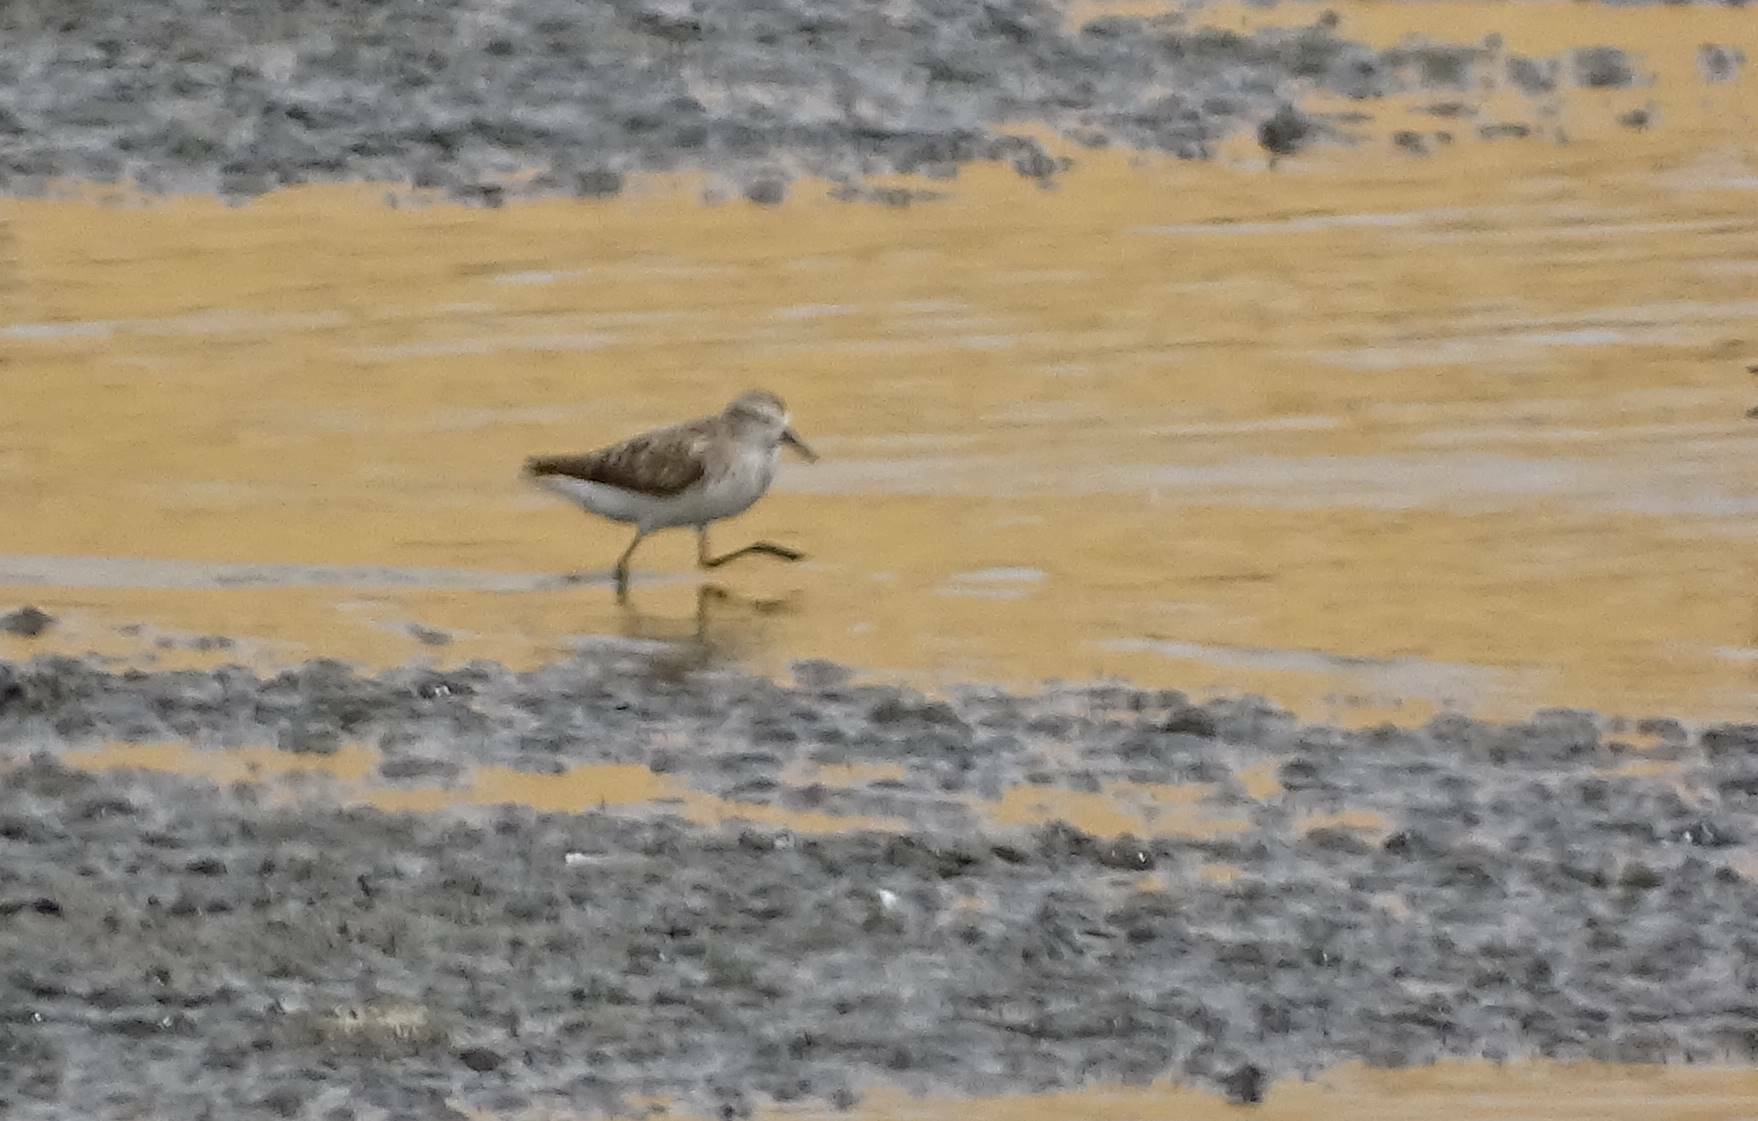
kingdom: Animalia
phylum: Chordata
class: Aves
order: Charadriiformes
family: Scolopacidae
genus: Calidris
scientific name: Calidris minuta
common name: Little stint
